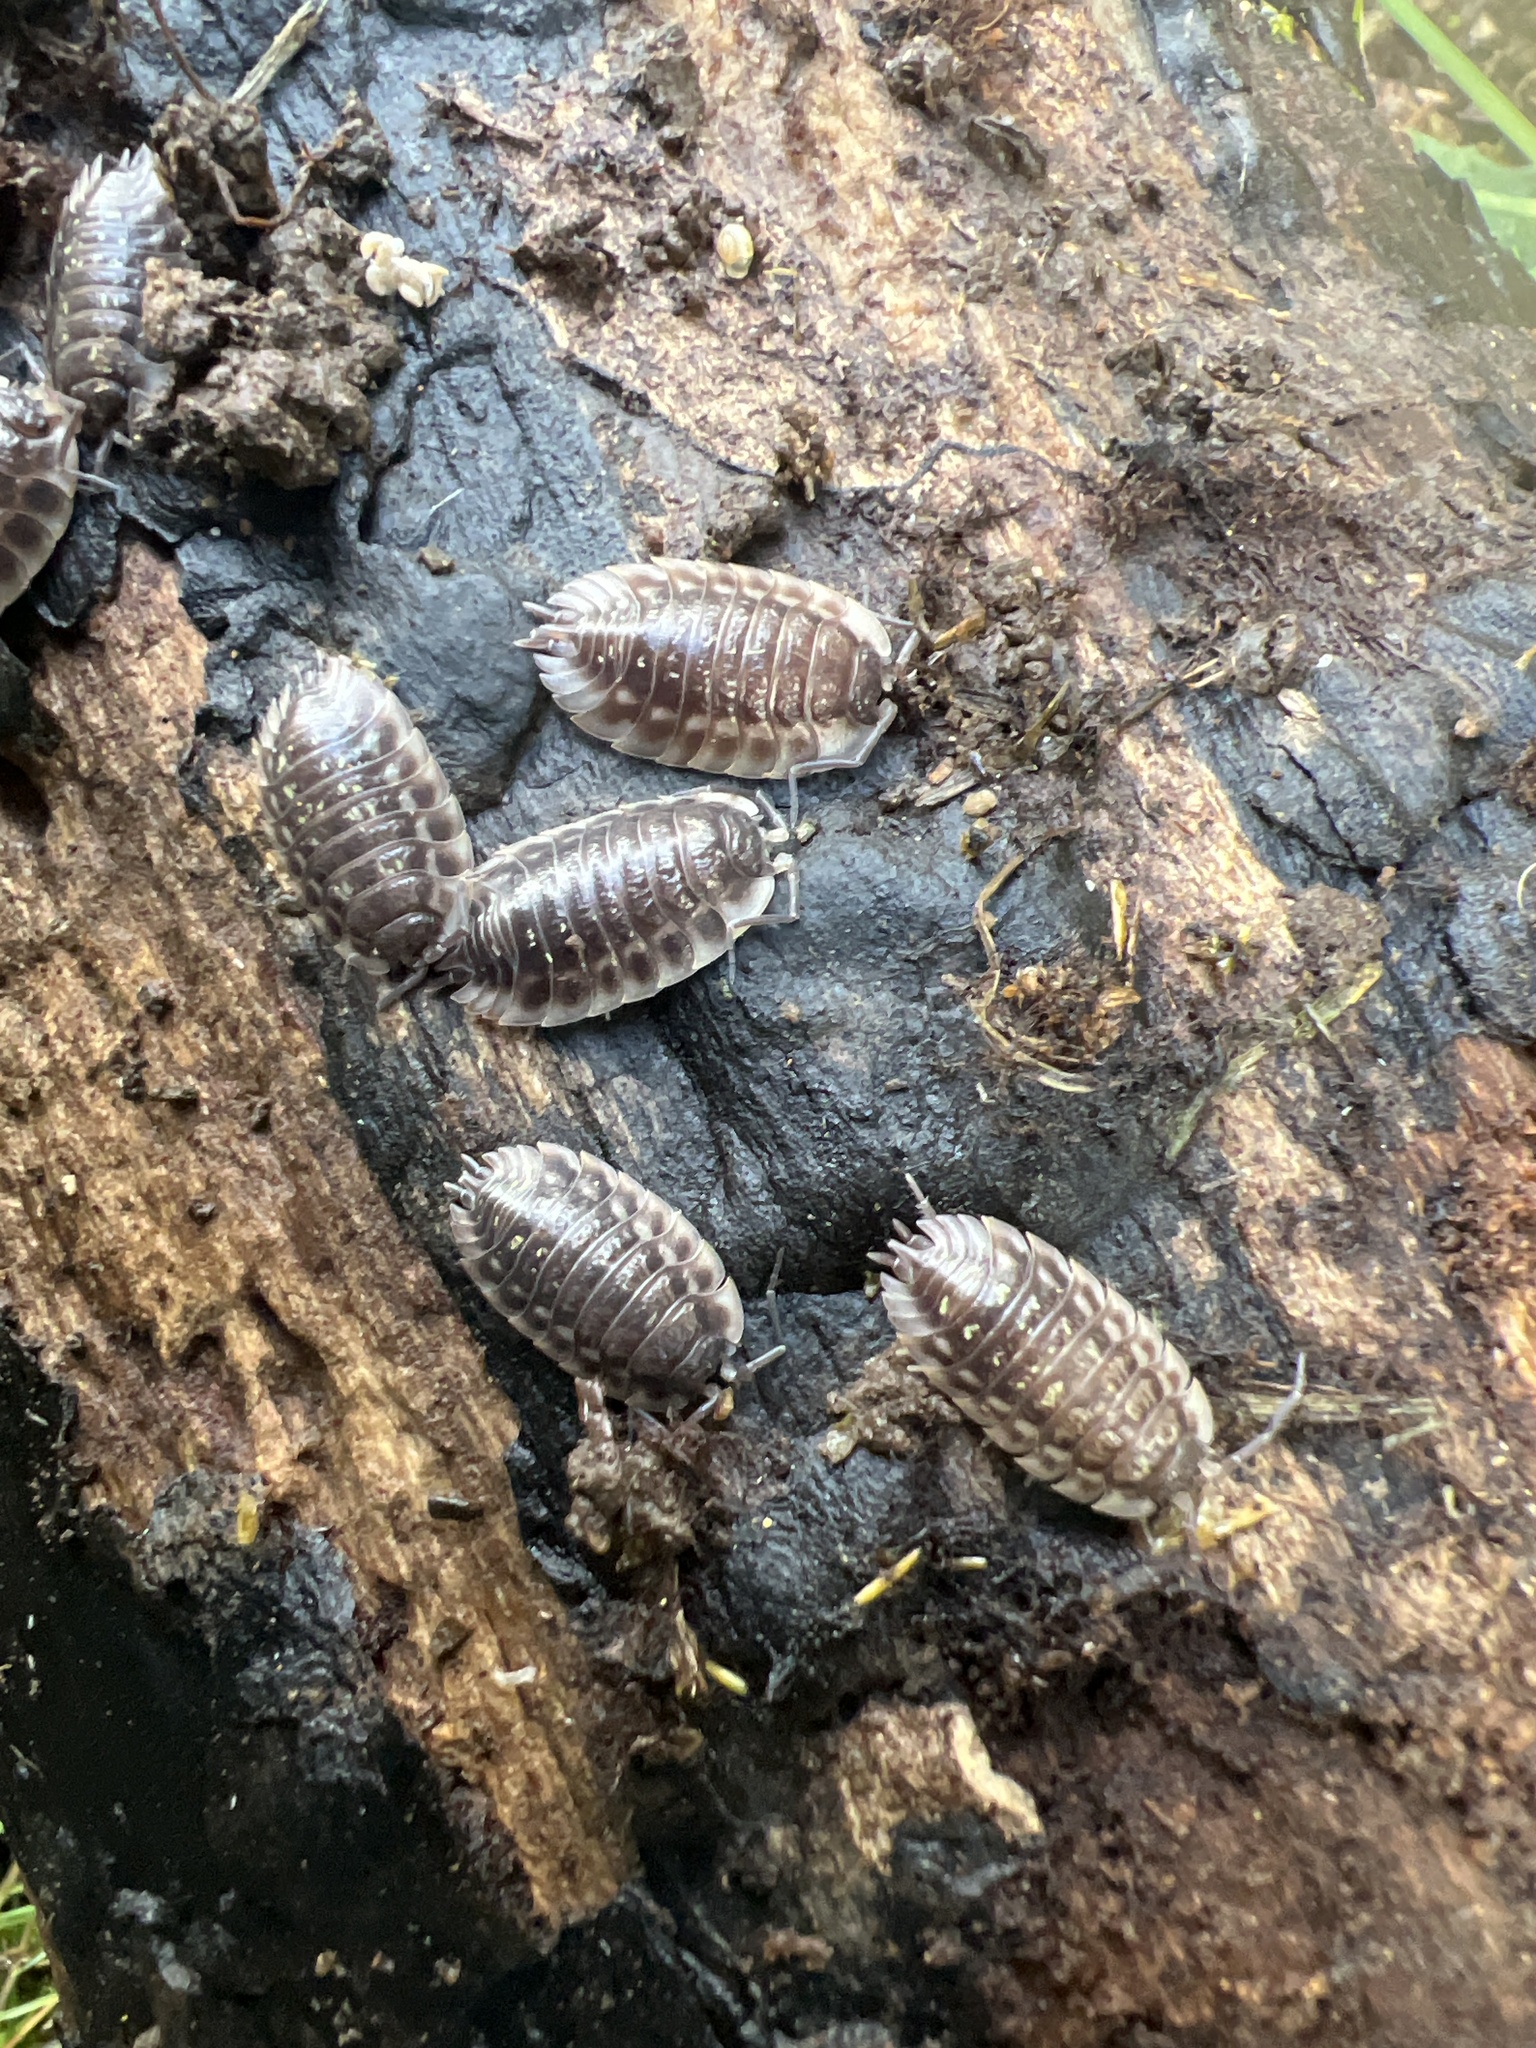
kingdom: Animalia
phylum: Arthropoda
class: Malacostraca
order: Isopoda
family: Oniscidae
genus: Oniscus
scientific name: Oniscus asellus
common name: Common shiny woodlouse
